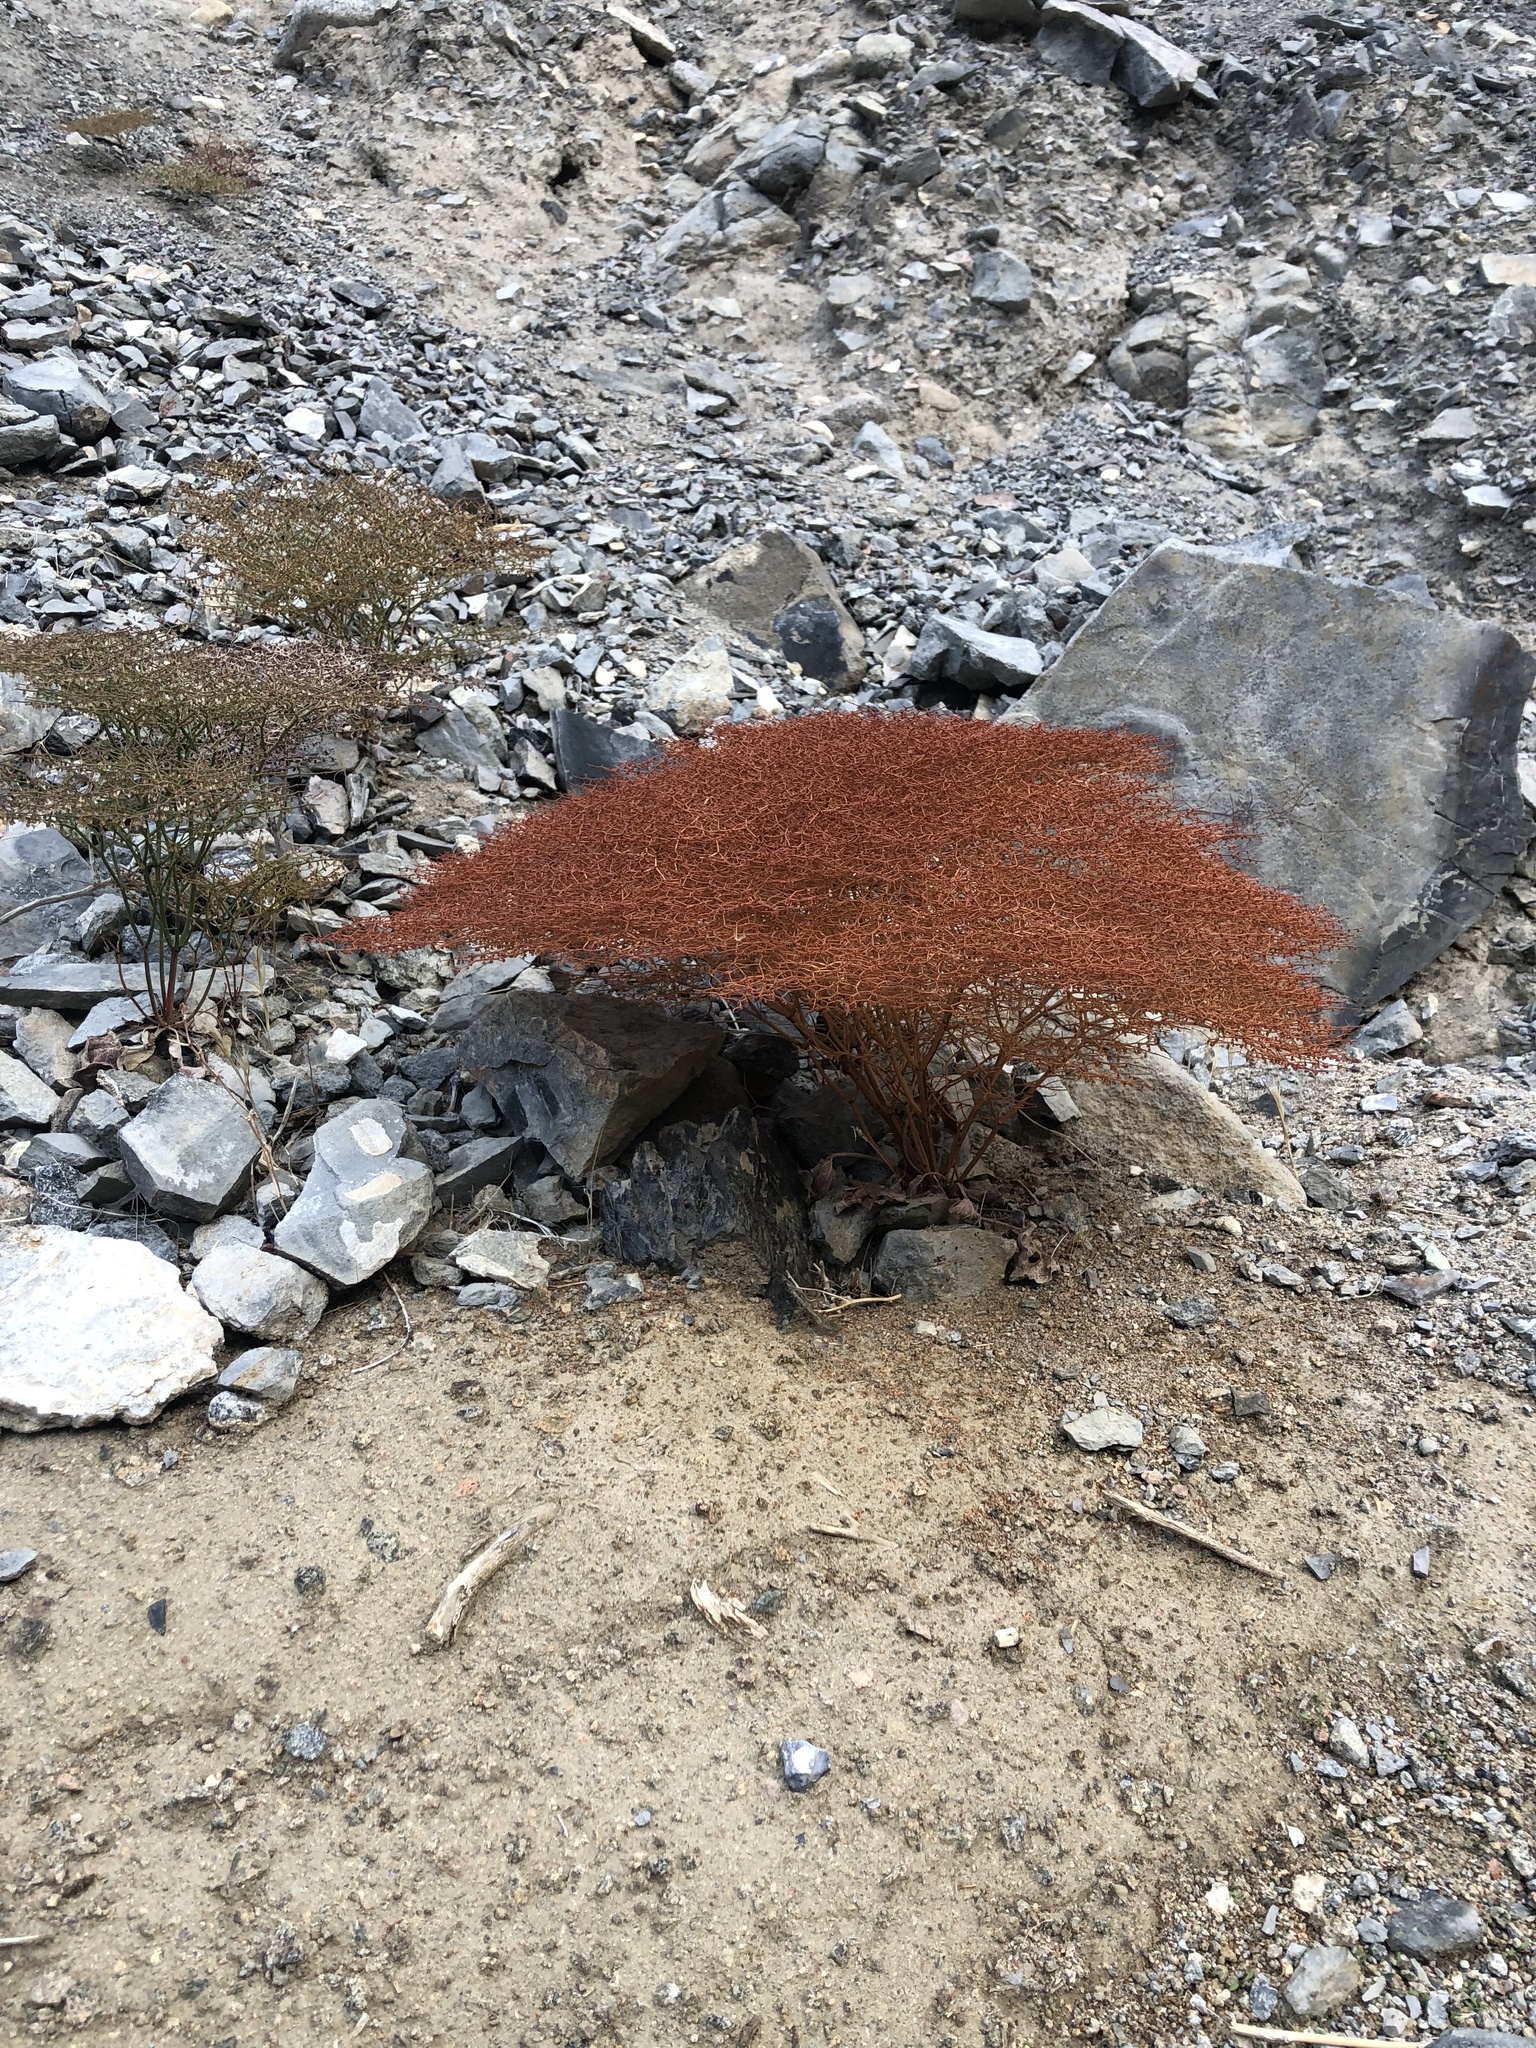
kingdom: Plantae
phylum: Tracheophyta
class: Magnoliopsida
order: Caryophyllales
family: Polygonaceae
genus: Eriogonum
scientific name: Eriogonum rixfordii
